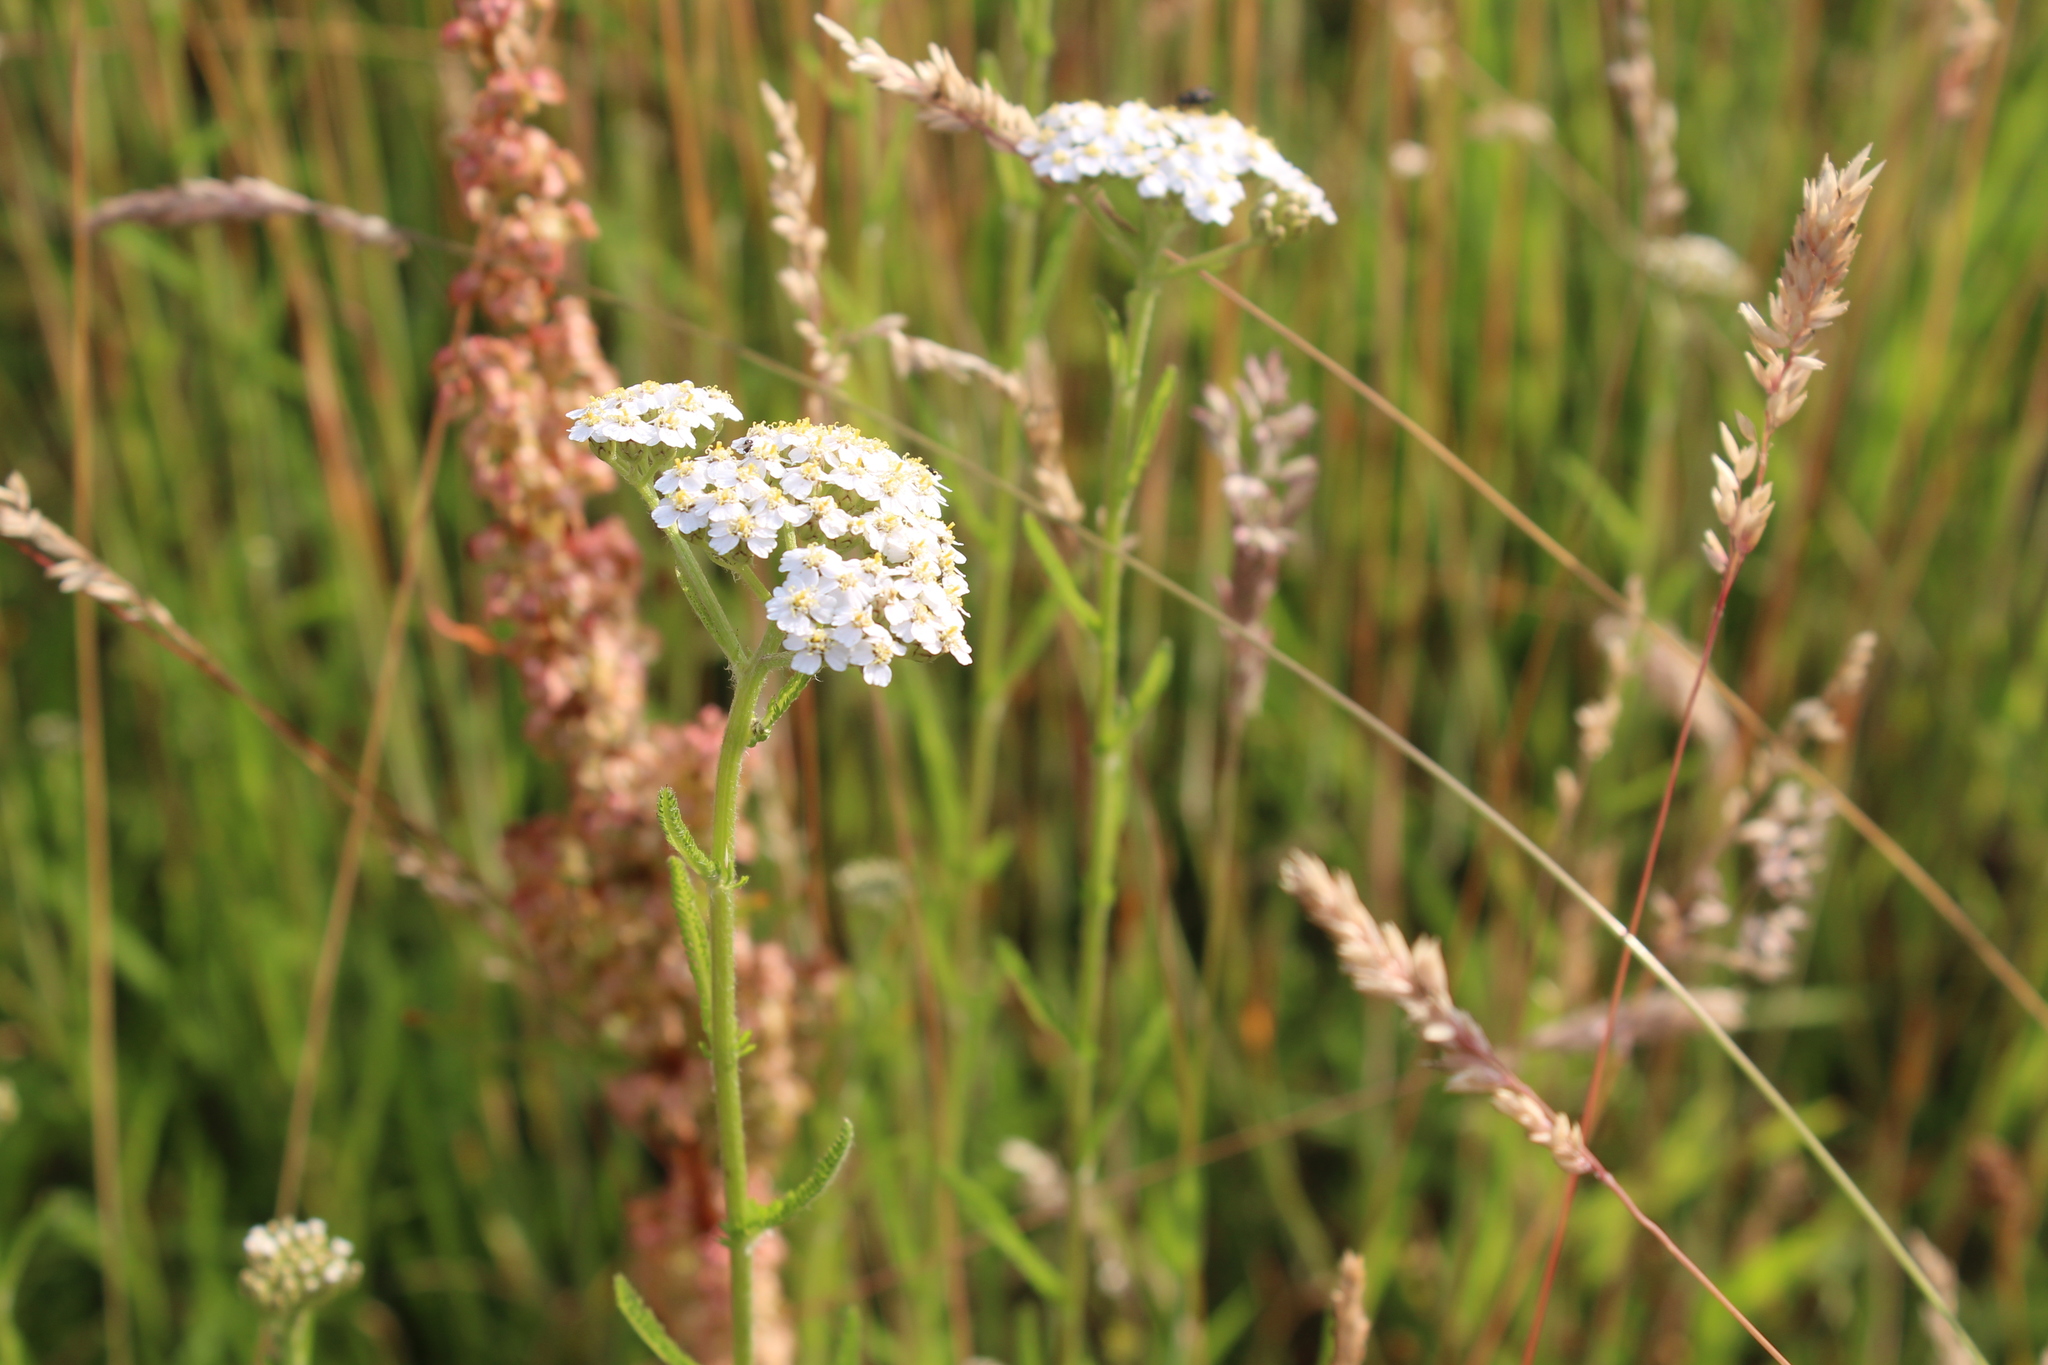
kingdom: Plantae
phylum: Tracheophyta
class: Magnoliopsida
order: Asterales
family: Asteraceae
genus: Achillea
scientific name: Achillea millefolium
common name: Yarrow
